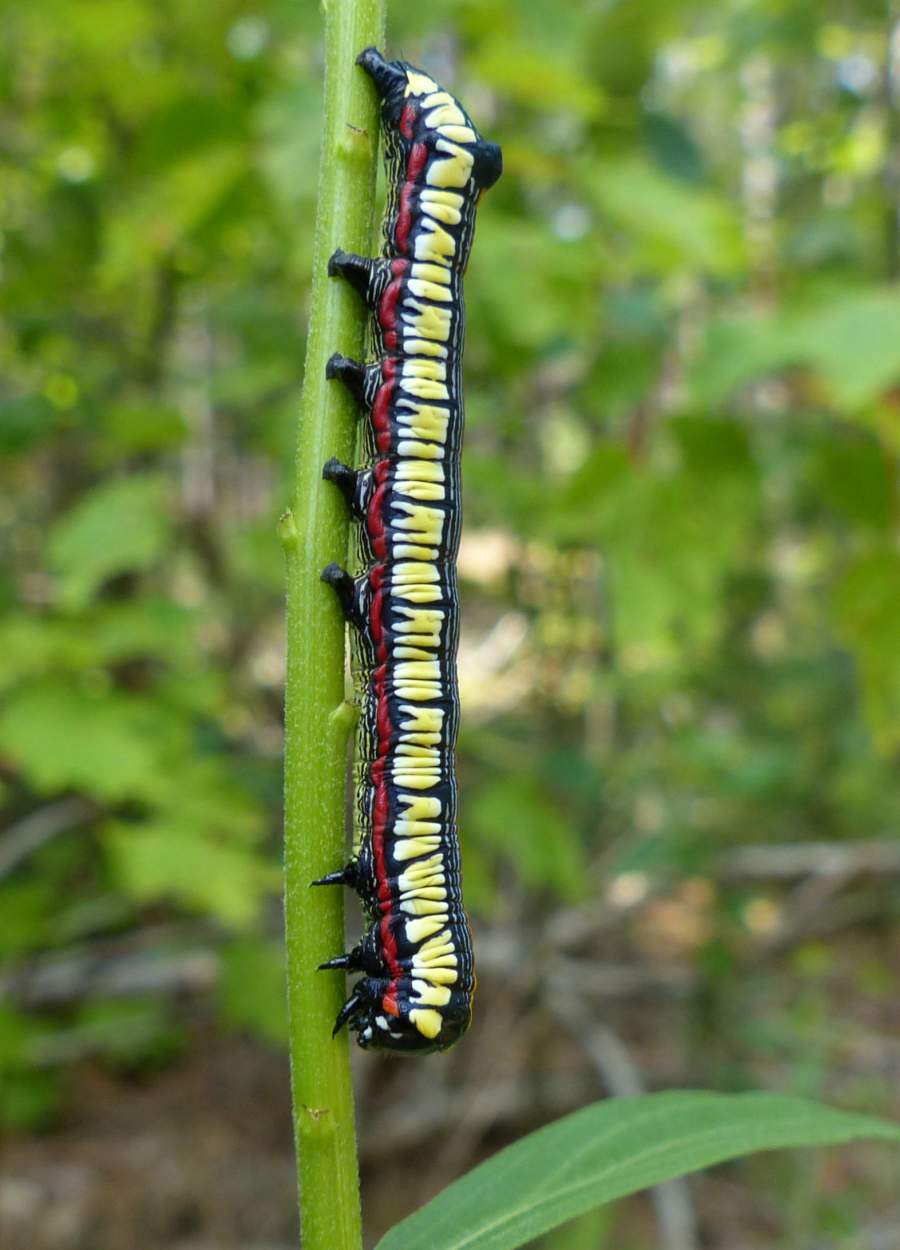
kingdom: Animalia
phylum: Arthropoda
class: Insecta
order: Lepidoptera
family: Noctuidae
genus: Cucullia
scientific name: Cucullia convexipennis
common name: Brown-hooded owlet
